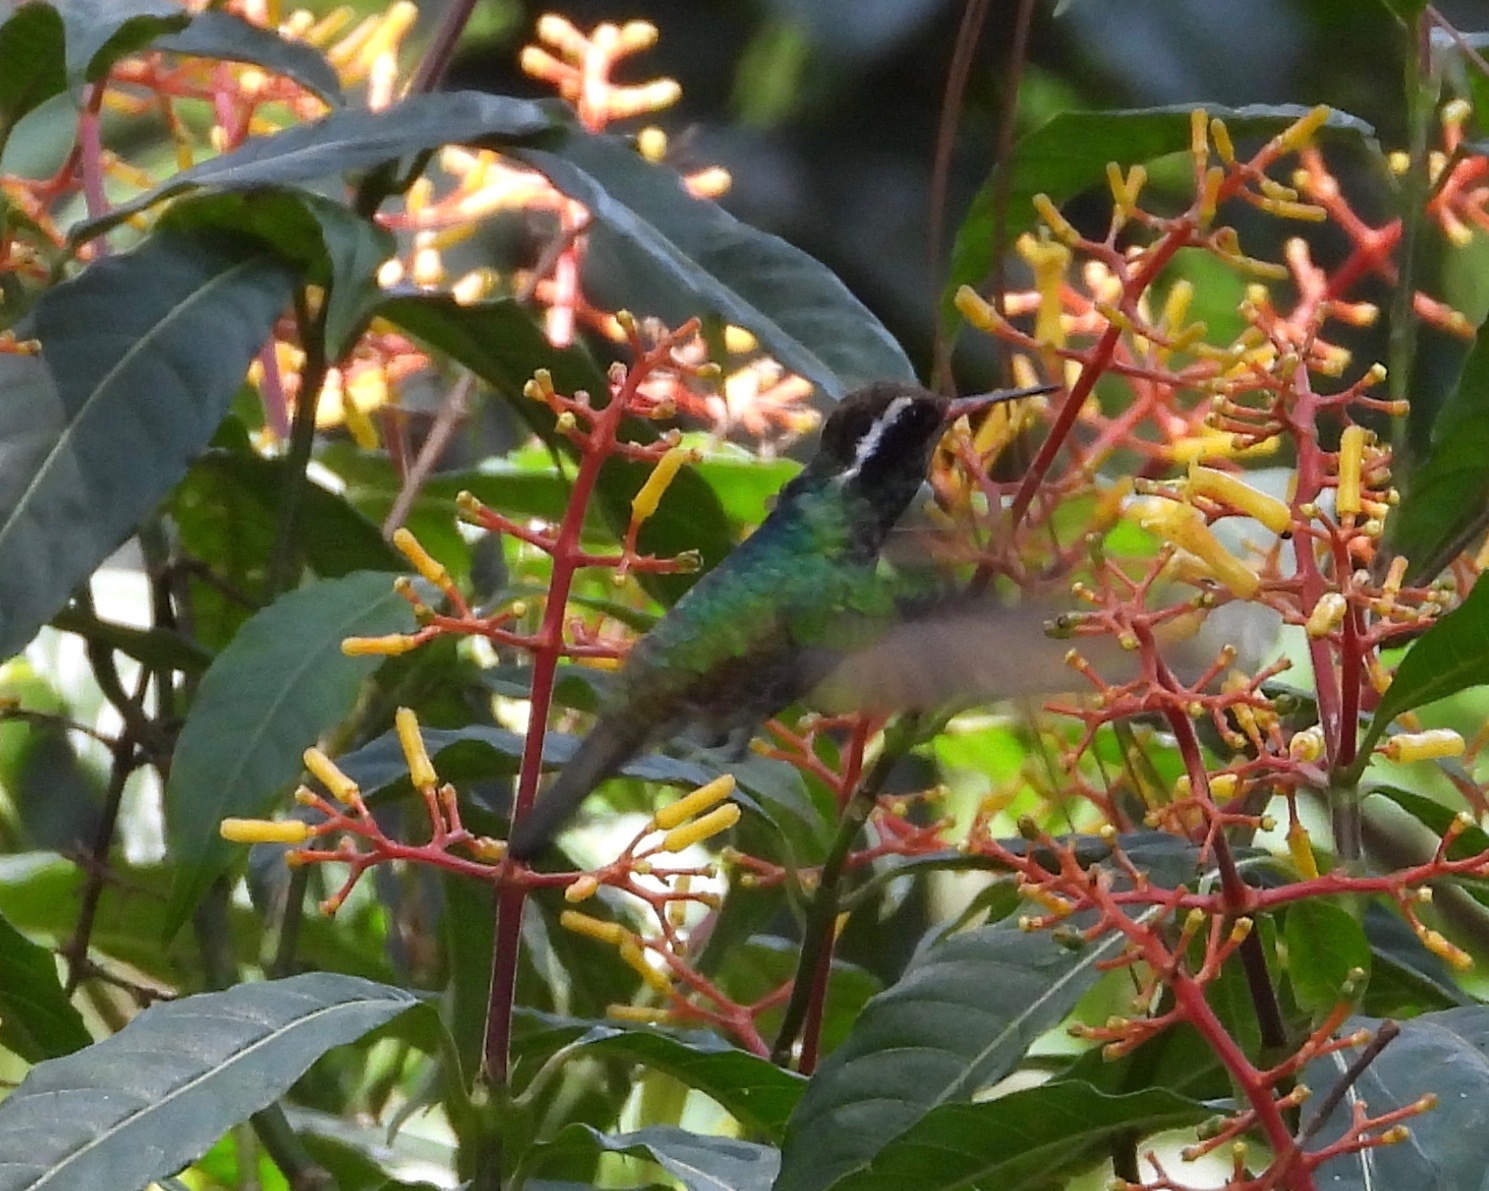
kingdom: Animalia
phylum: Chordata
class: Aves
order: Apodiformes
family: Trochilidae
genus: Basilinna
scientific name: Basilinna leucotis
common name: White-eared hummingbird
